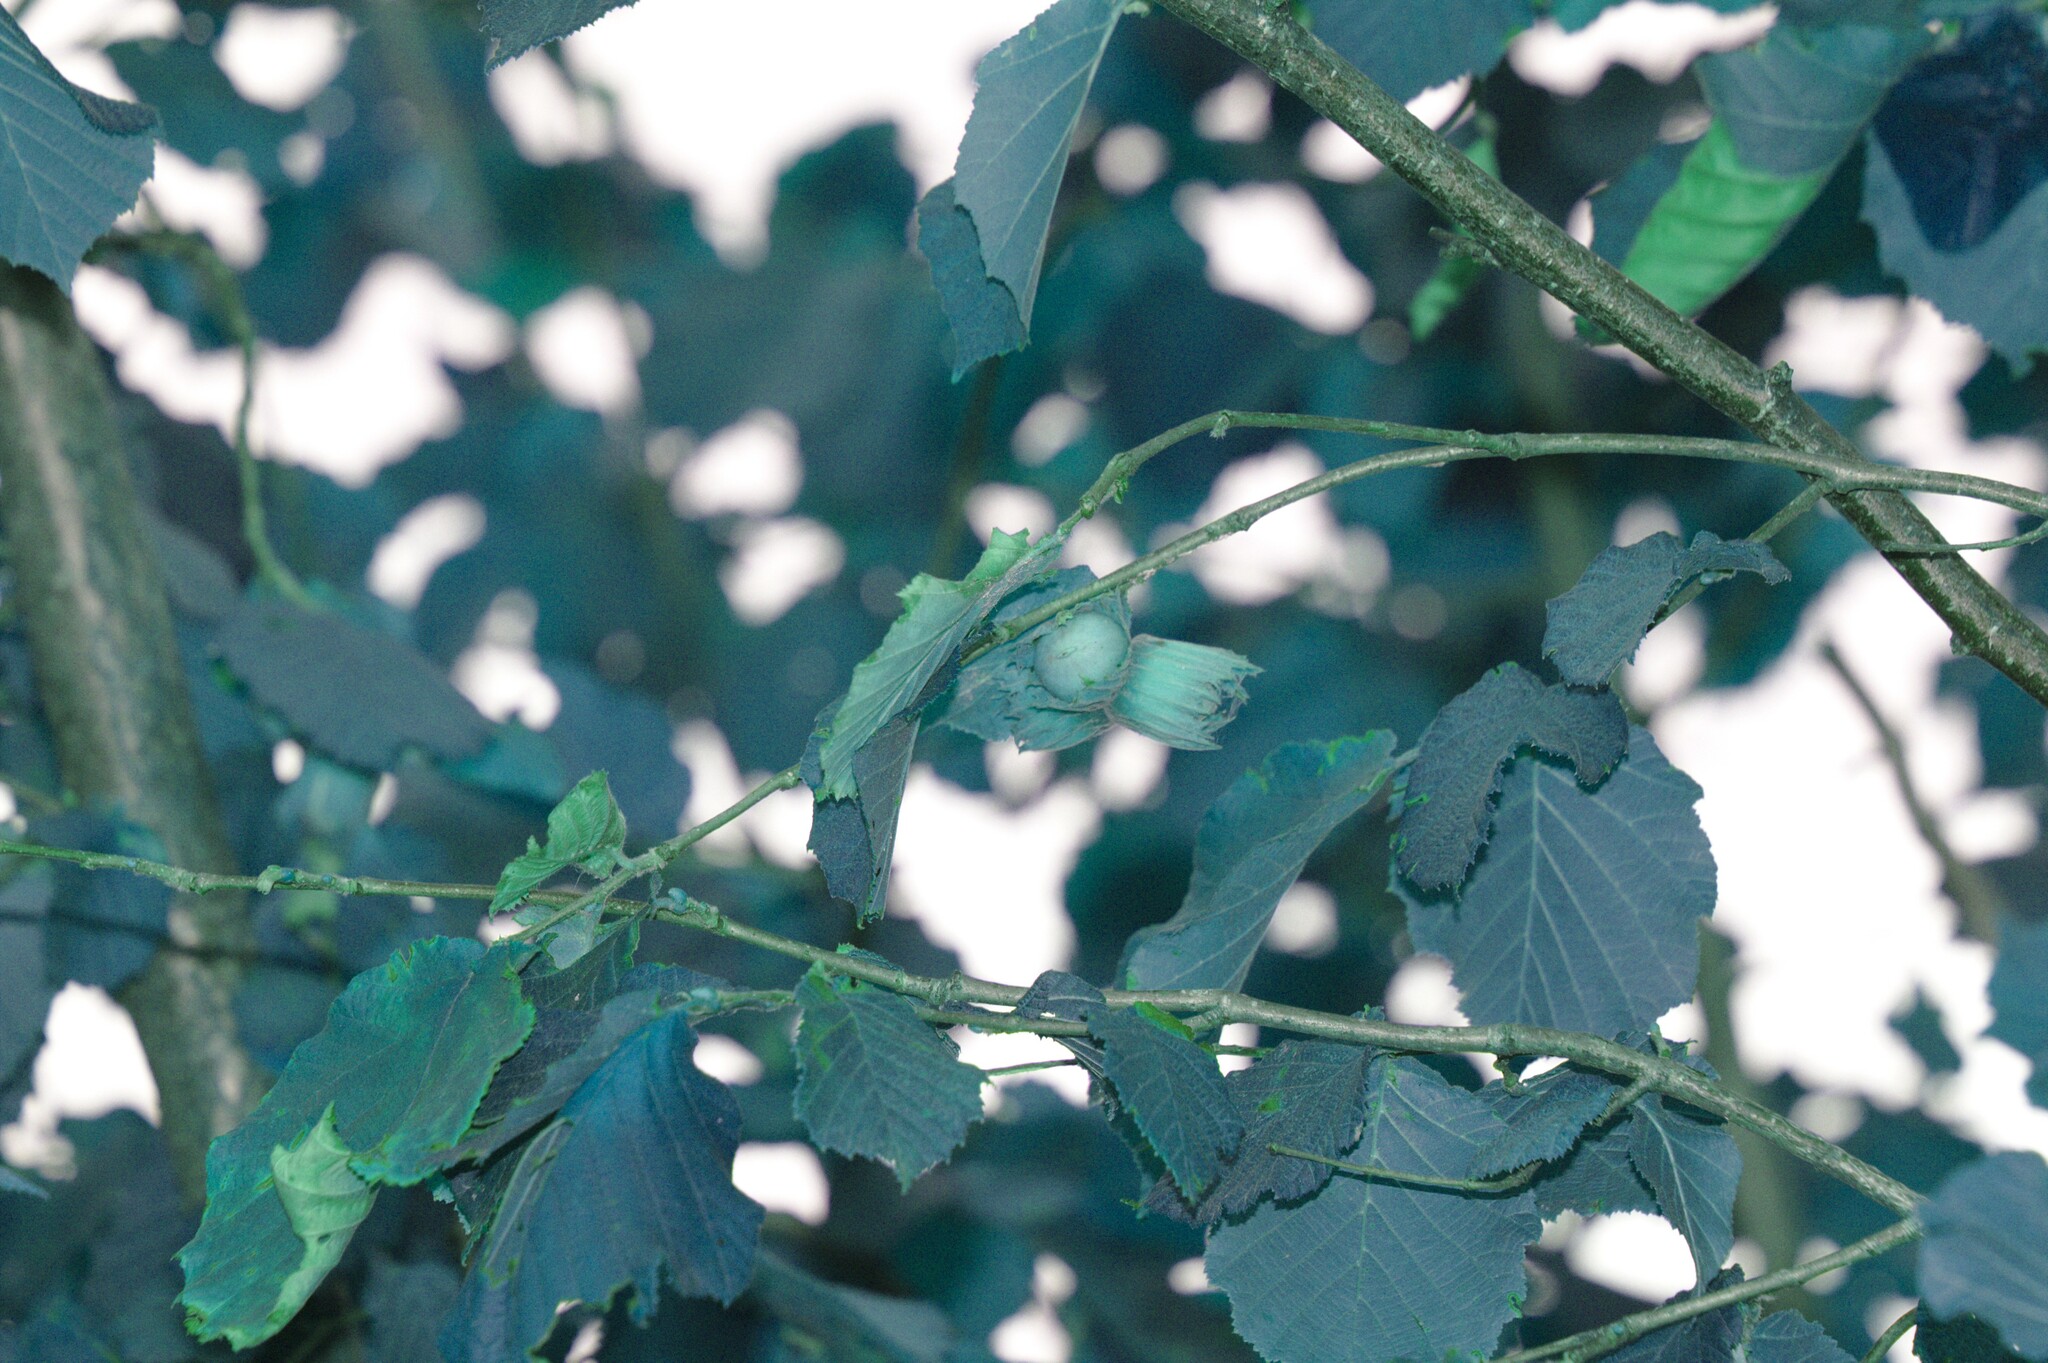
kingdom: Plantae
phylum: Tracheophyta
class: Magnoliopsida
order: Fagales
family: Betulaceae
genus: Corylus
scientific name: Corylus avellana
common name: European hazel
